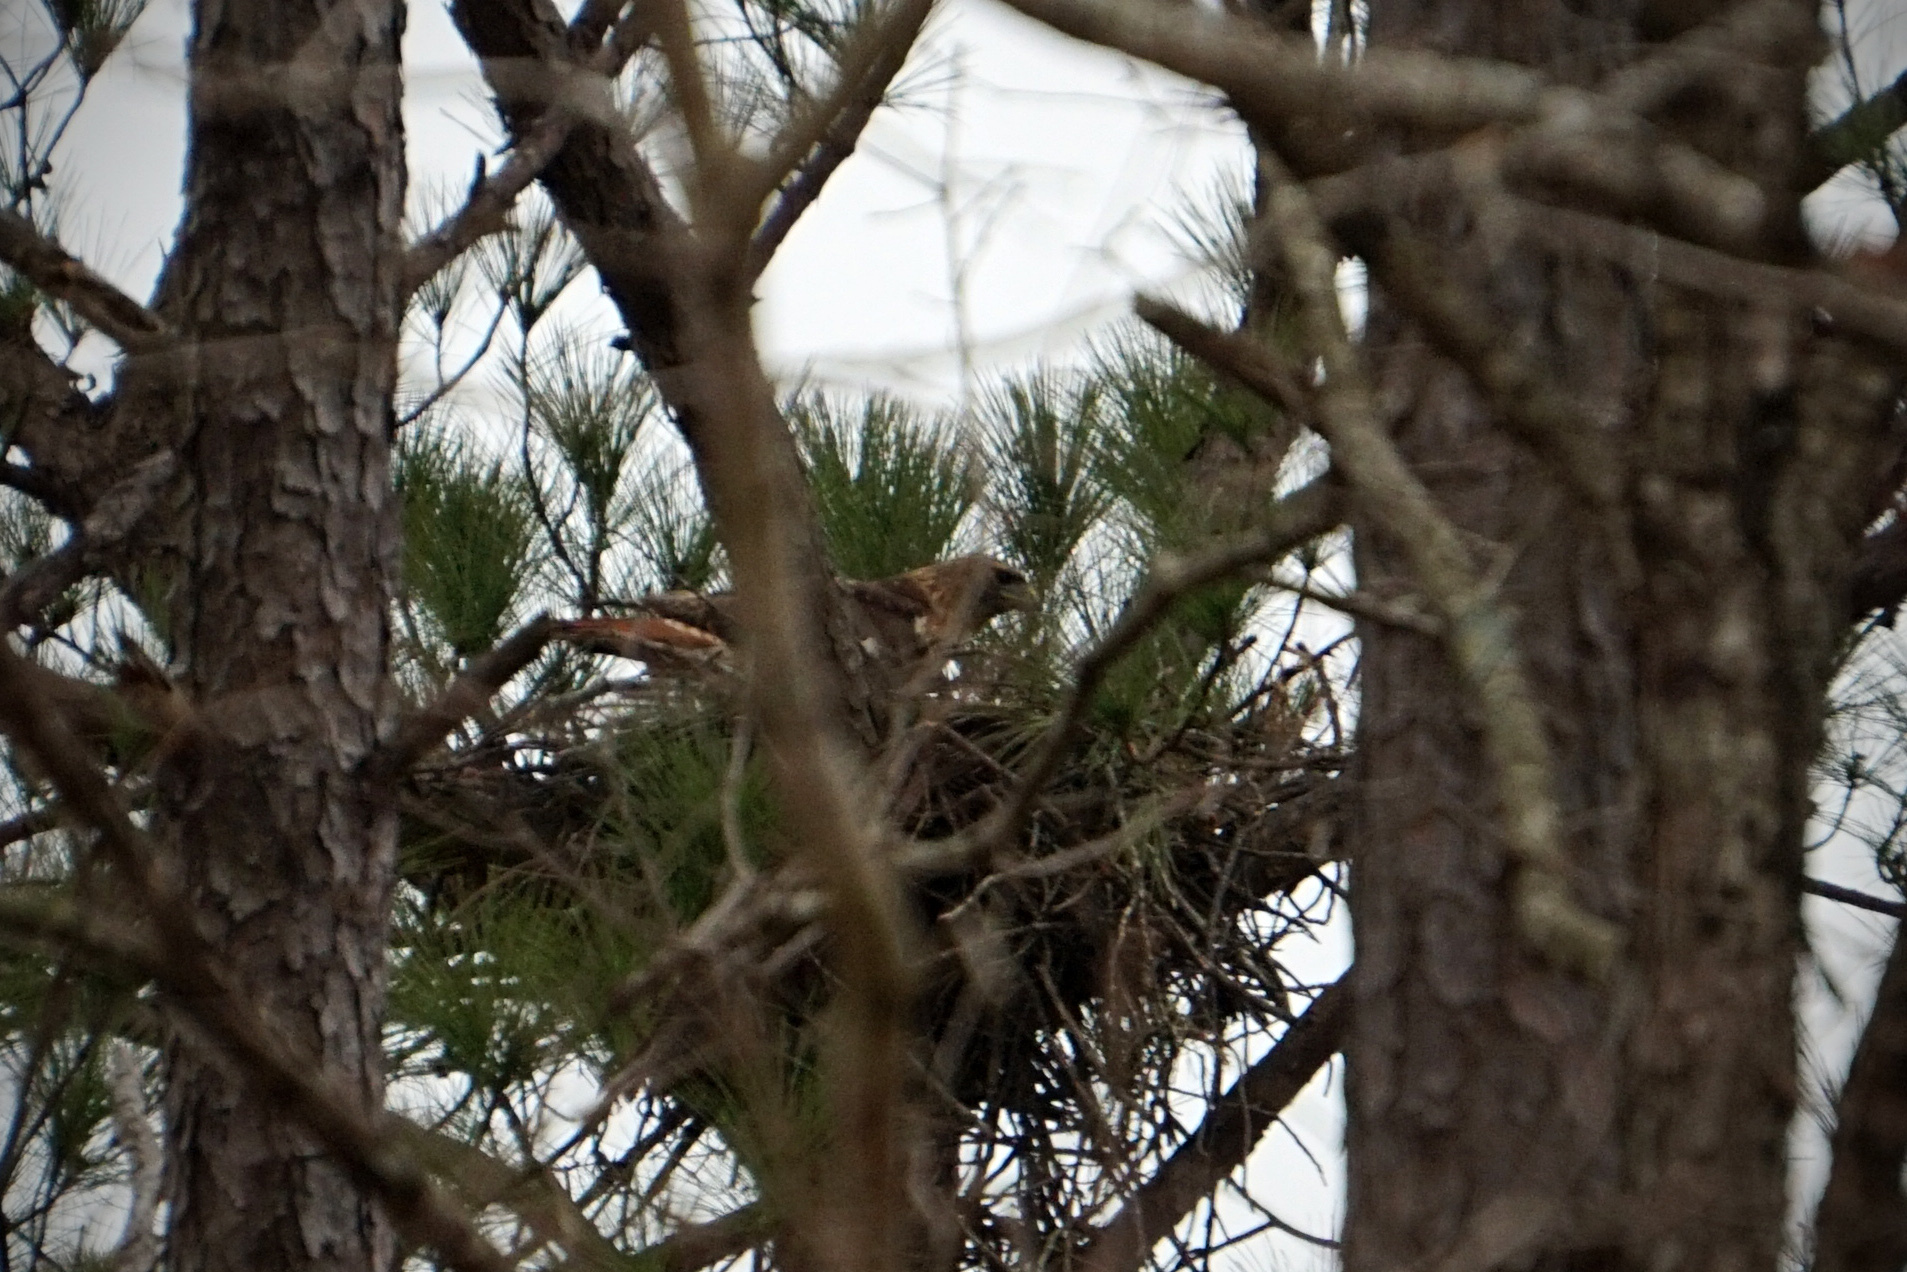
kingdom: Animalia
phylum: Chordata
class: Aves
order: Accipitriformes
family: Accipitridae
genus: Buteo
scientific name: Buteo jamaicensis
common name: Red-tailed hawk
